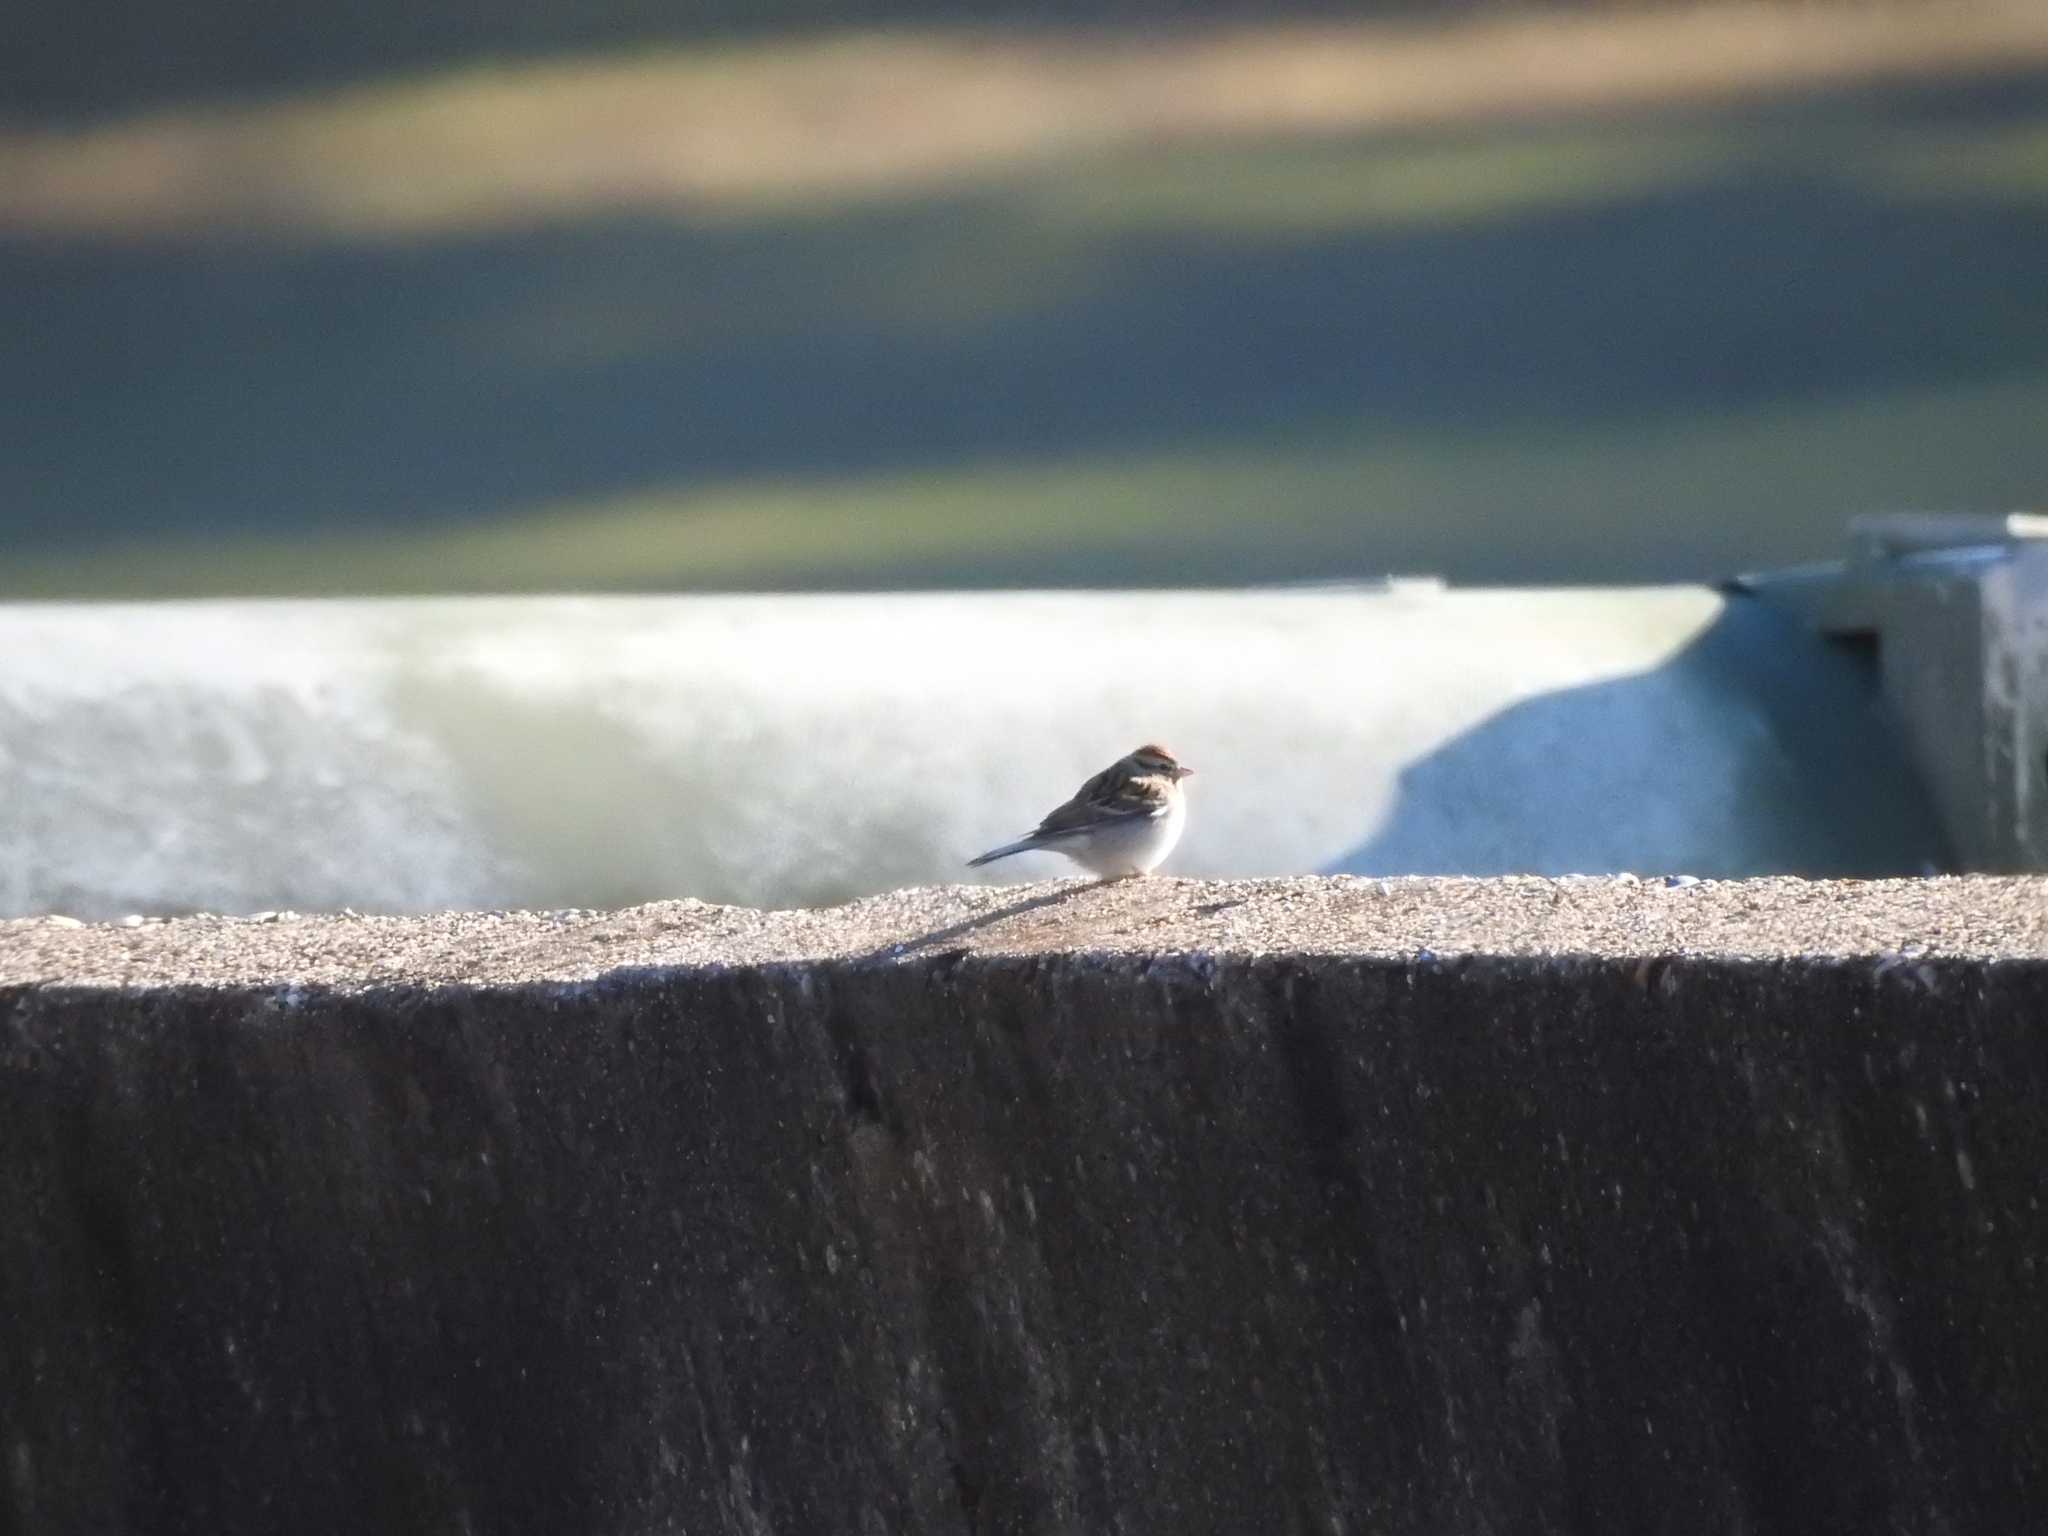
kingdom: Animalia
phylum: Chordata
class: Aves
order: Passeriformes
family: Passerellidae
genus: Spizella
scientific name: Spizella passerina
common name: Chipping sparrow
